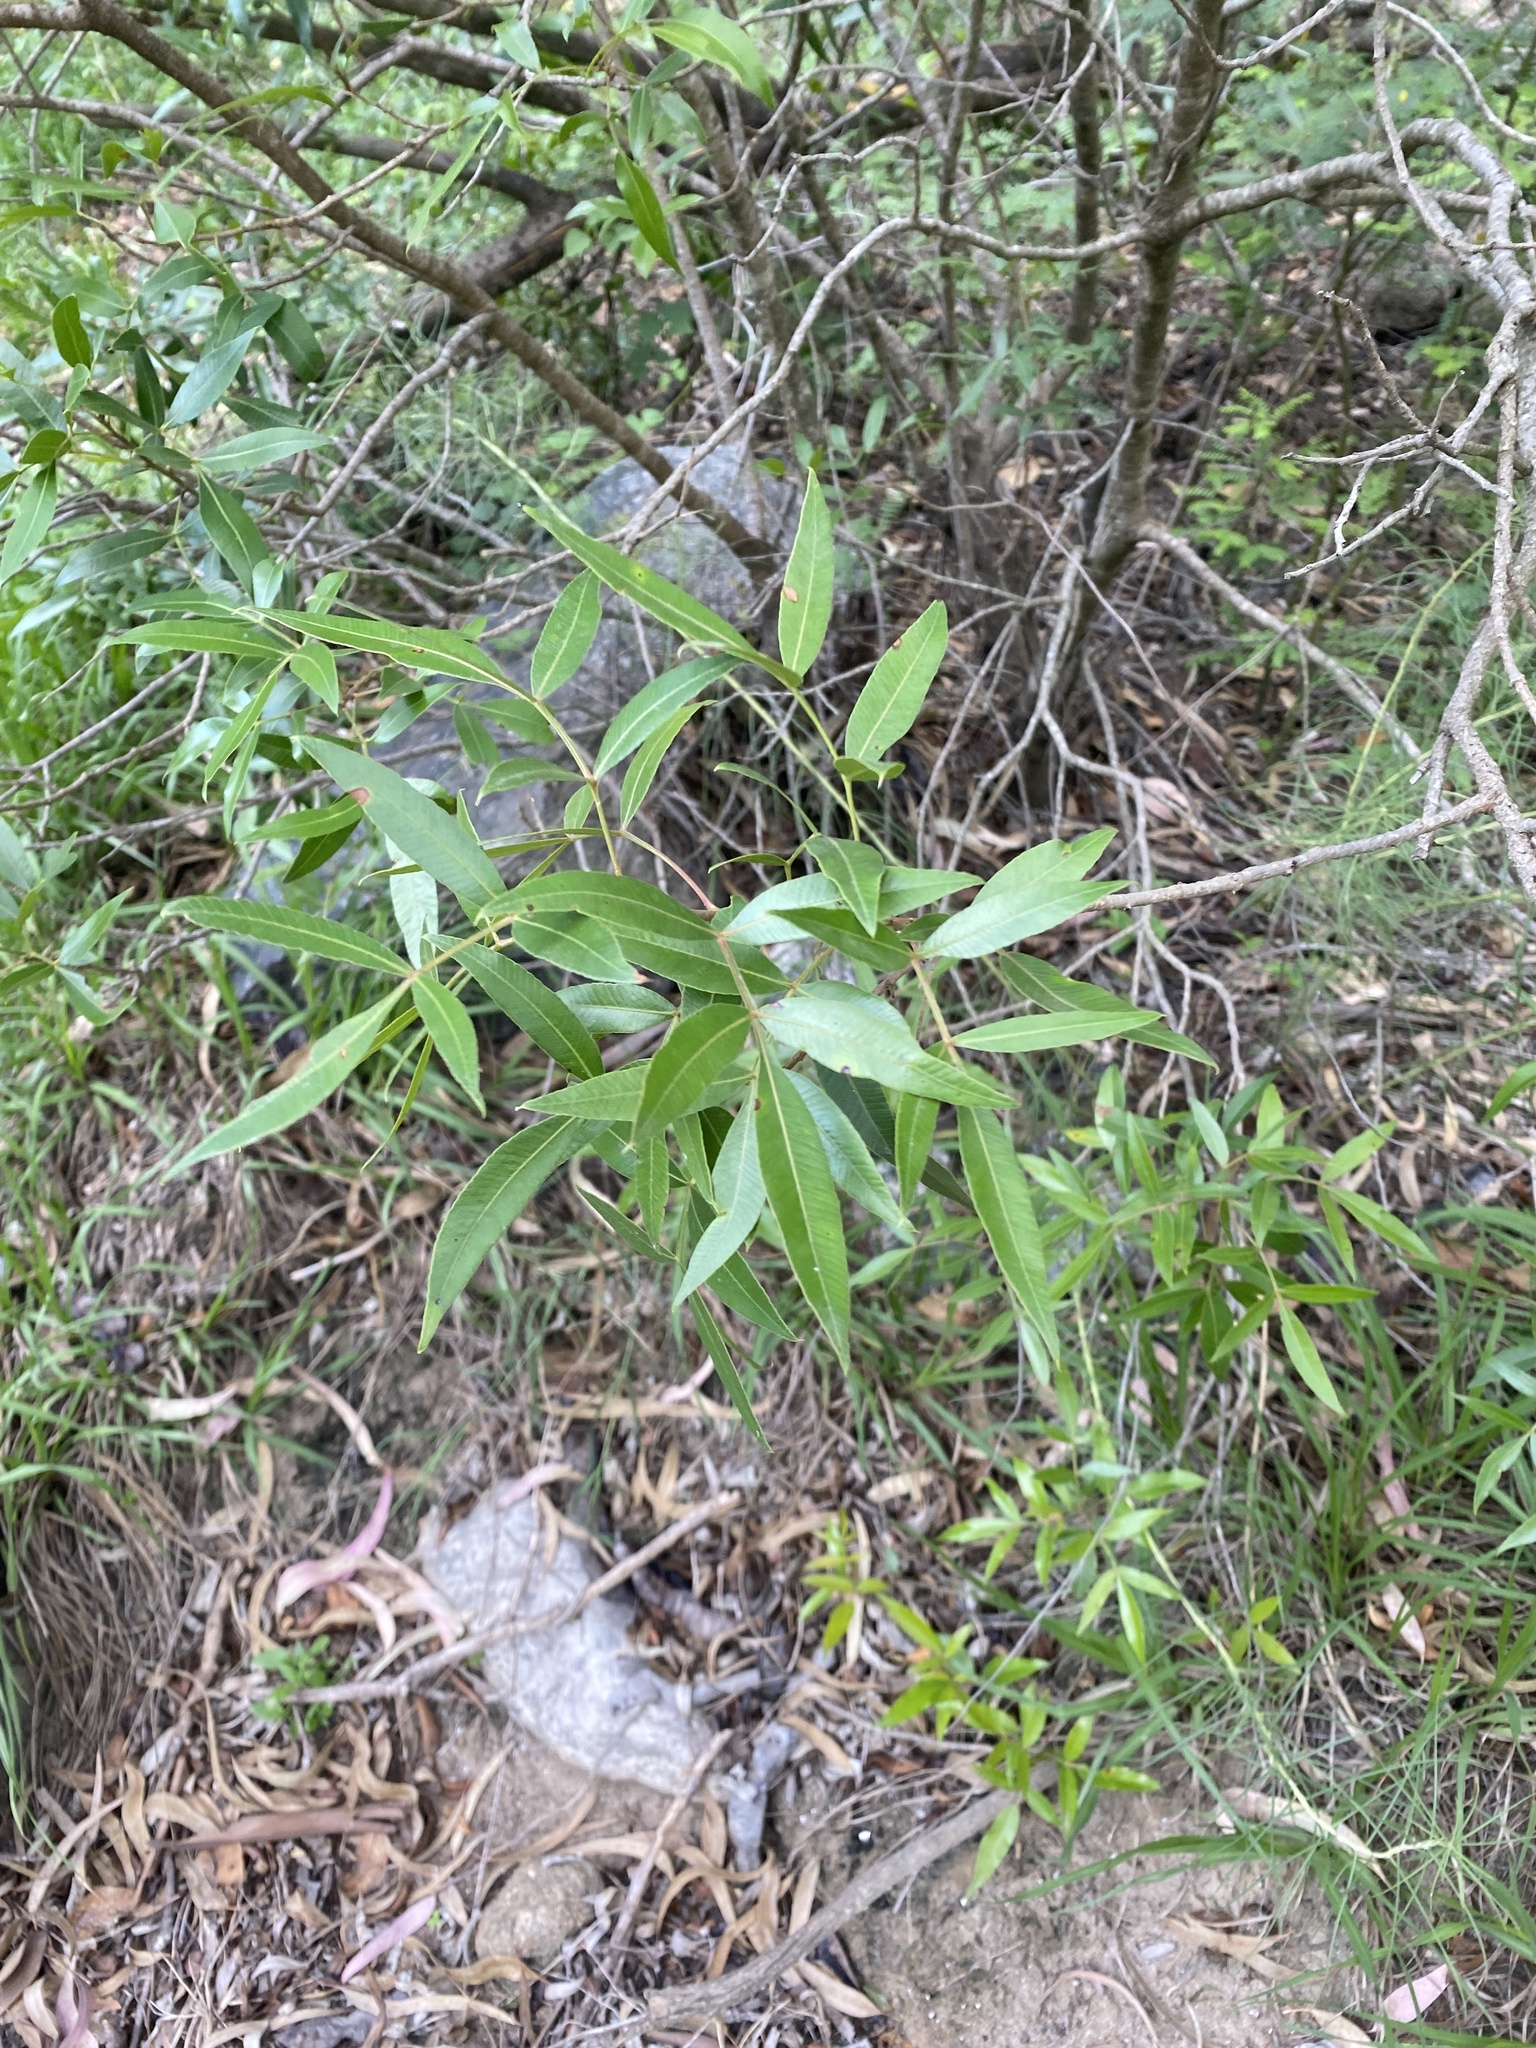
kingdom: Plantae
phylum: Tracheophyta
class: Magnoliopsida
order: Sapindales
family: Anacardiaceae
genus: Lithraea
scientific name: Lithraea molleoides
